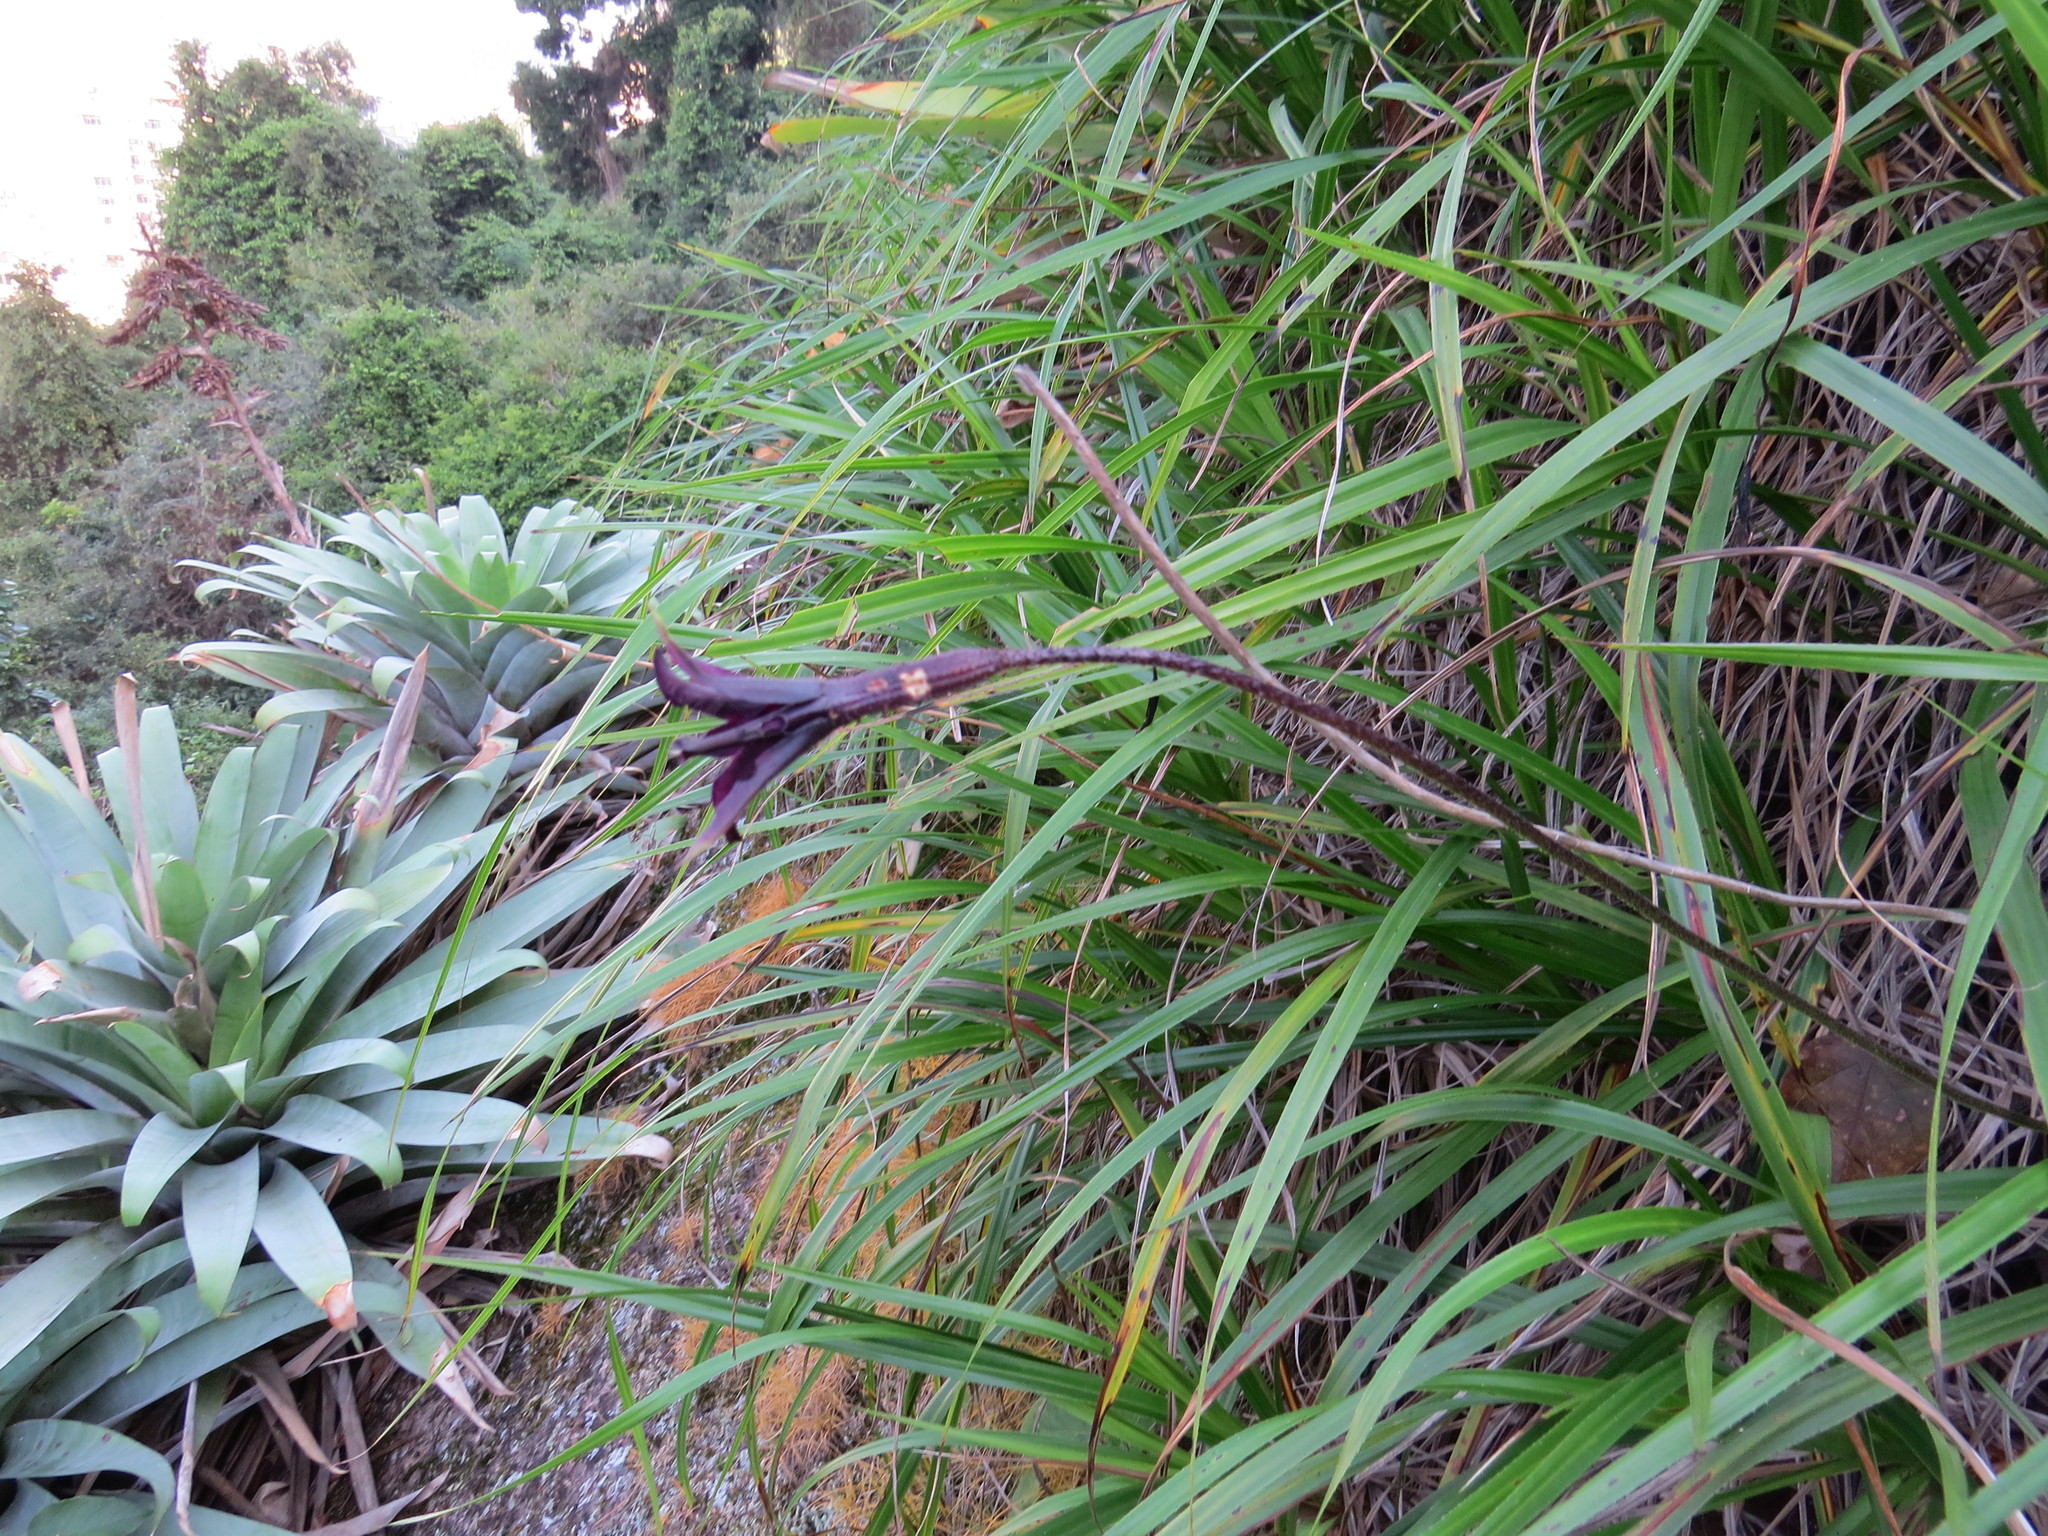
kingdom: Plantae
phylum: Tracheophyta
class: Liliopsida
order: Pandanales
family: Velloziaceae
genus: Barbacenia
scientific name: Barbacenia purpurea
